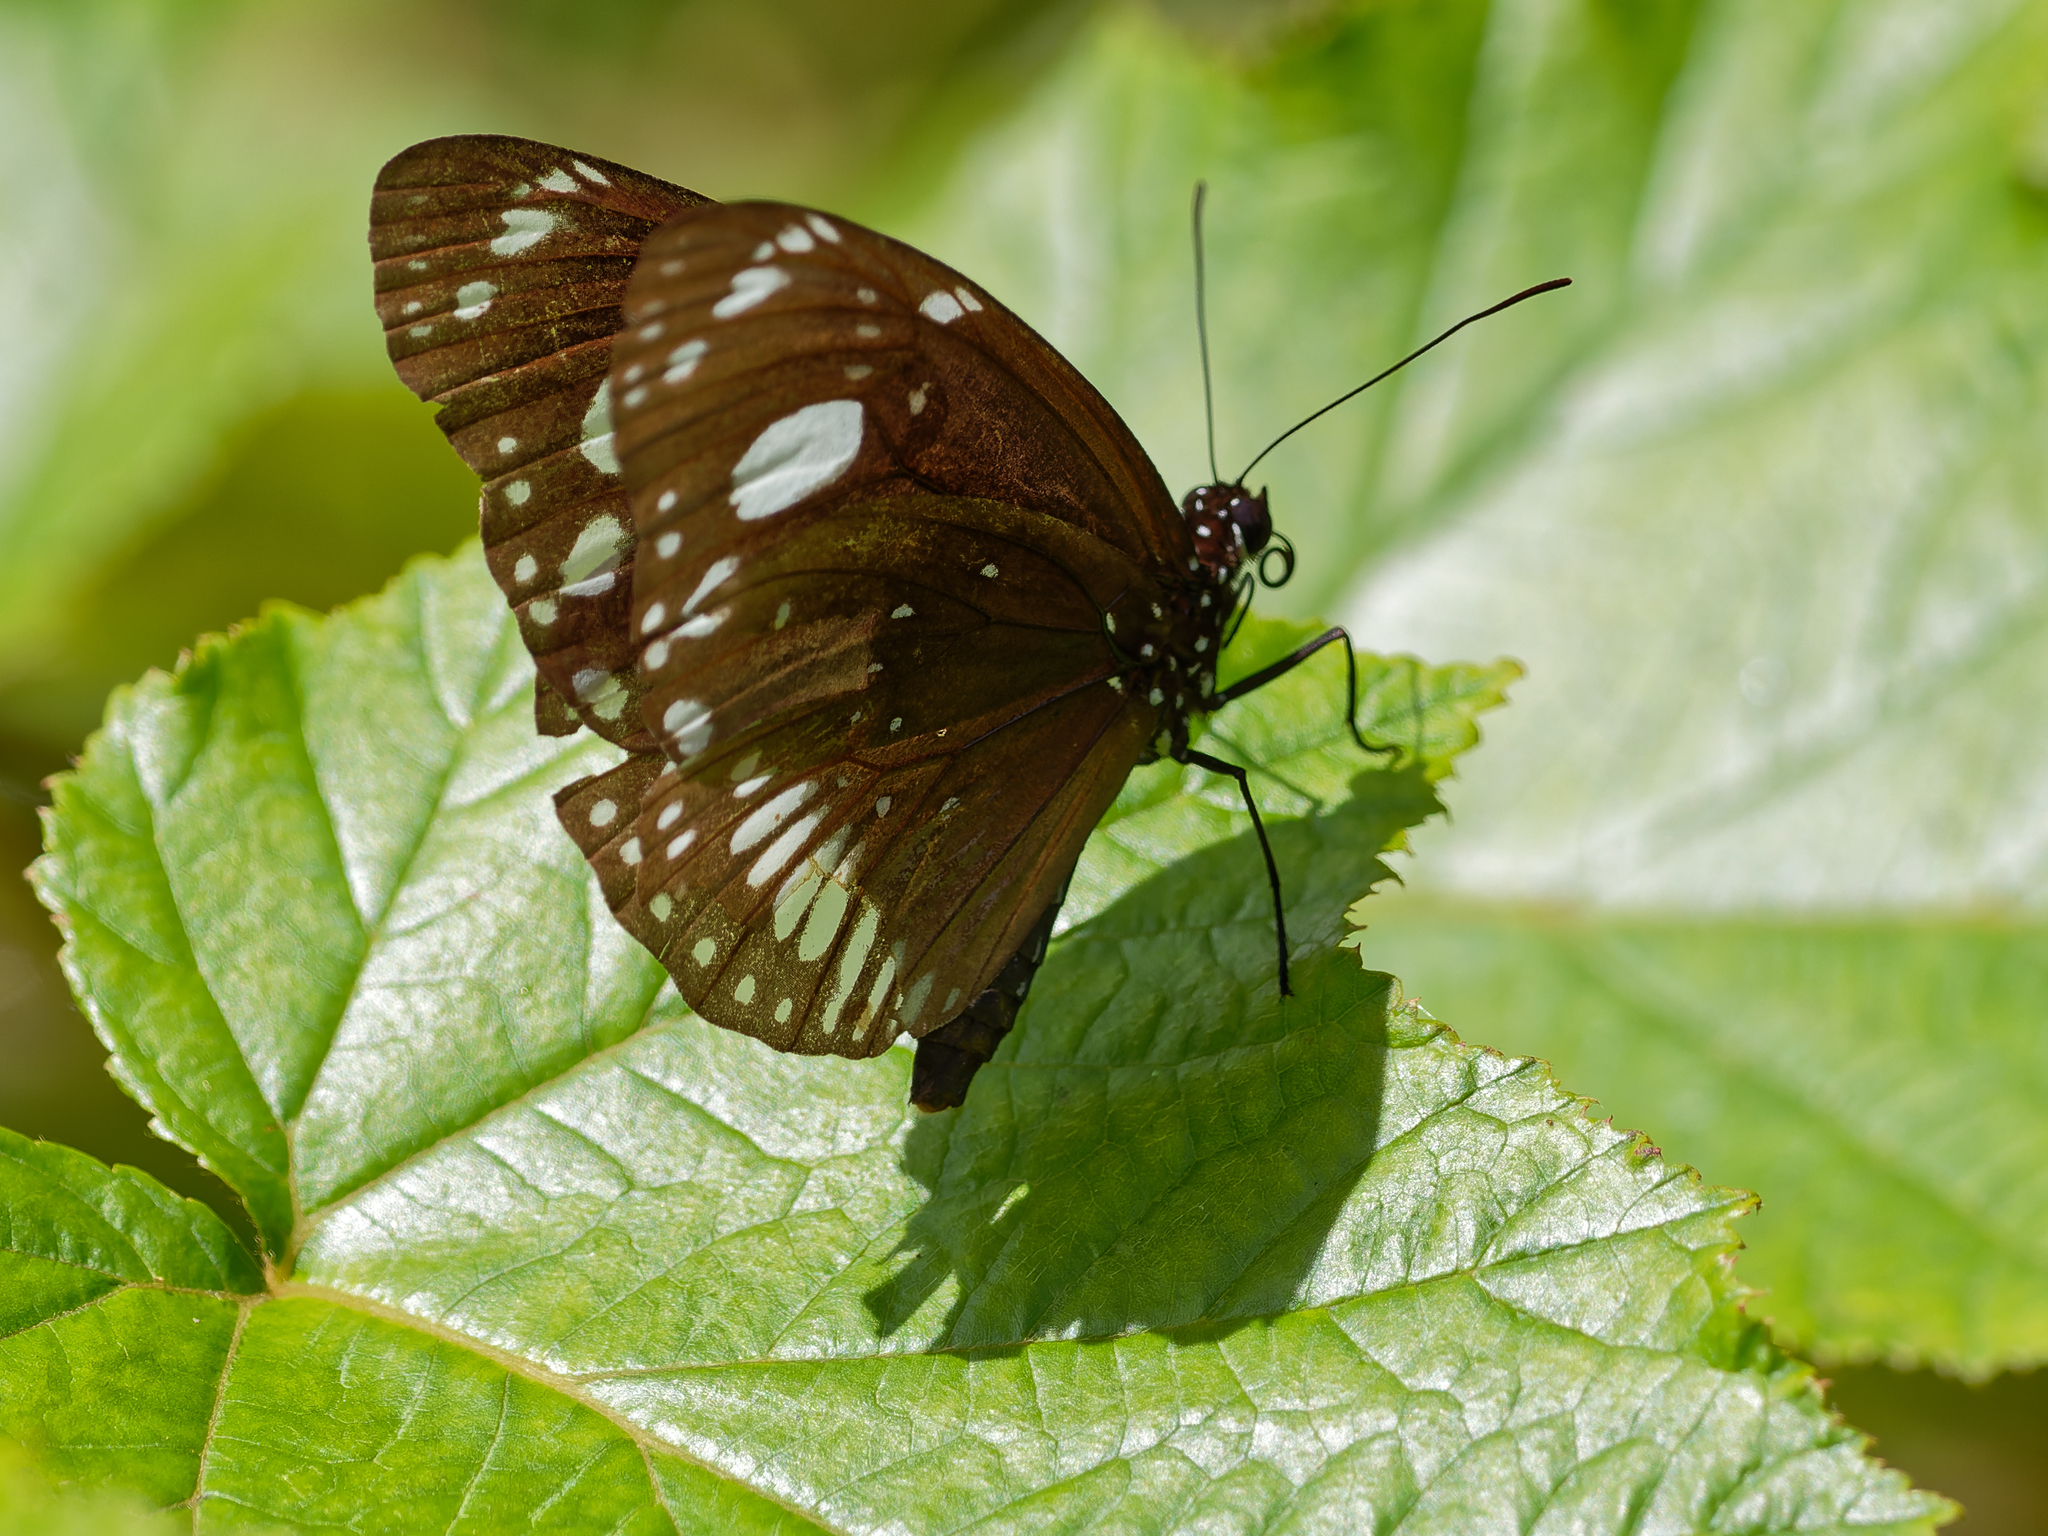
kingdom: Animalia
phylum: Arthropoda
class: Insecta
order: Lepidoptera
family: Nymphalidae
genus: Euploea
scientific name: Euploea lewinii
